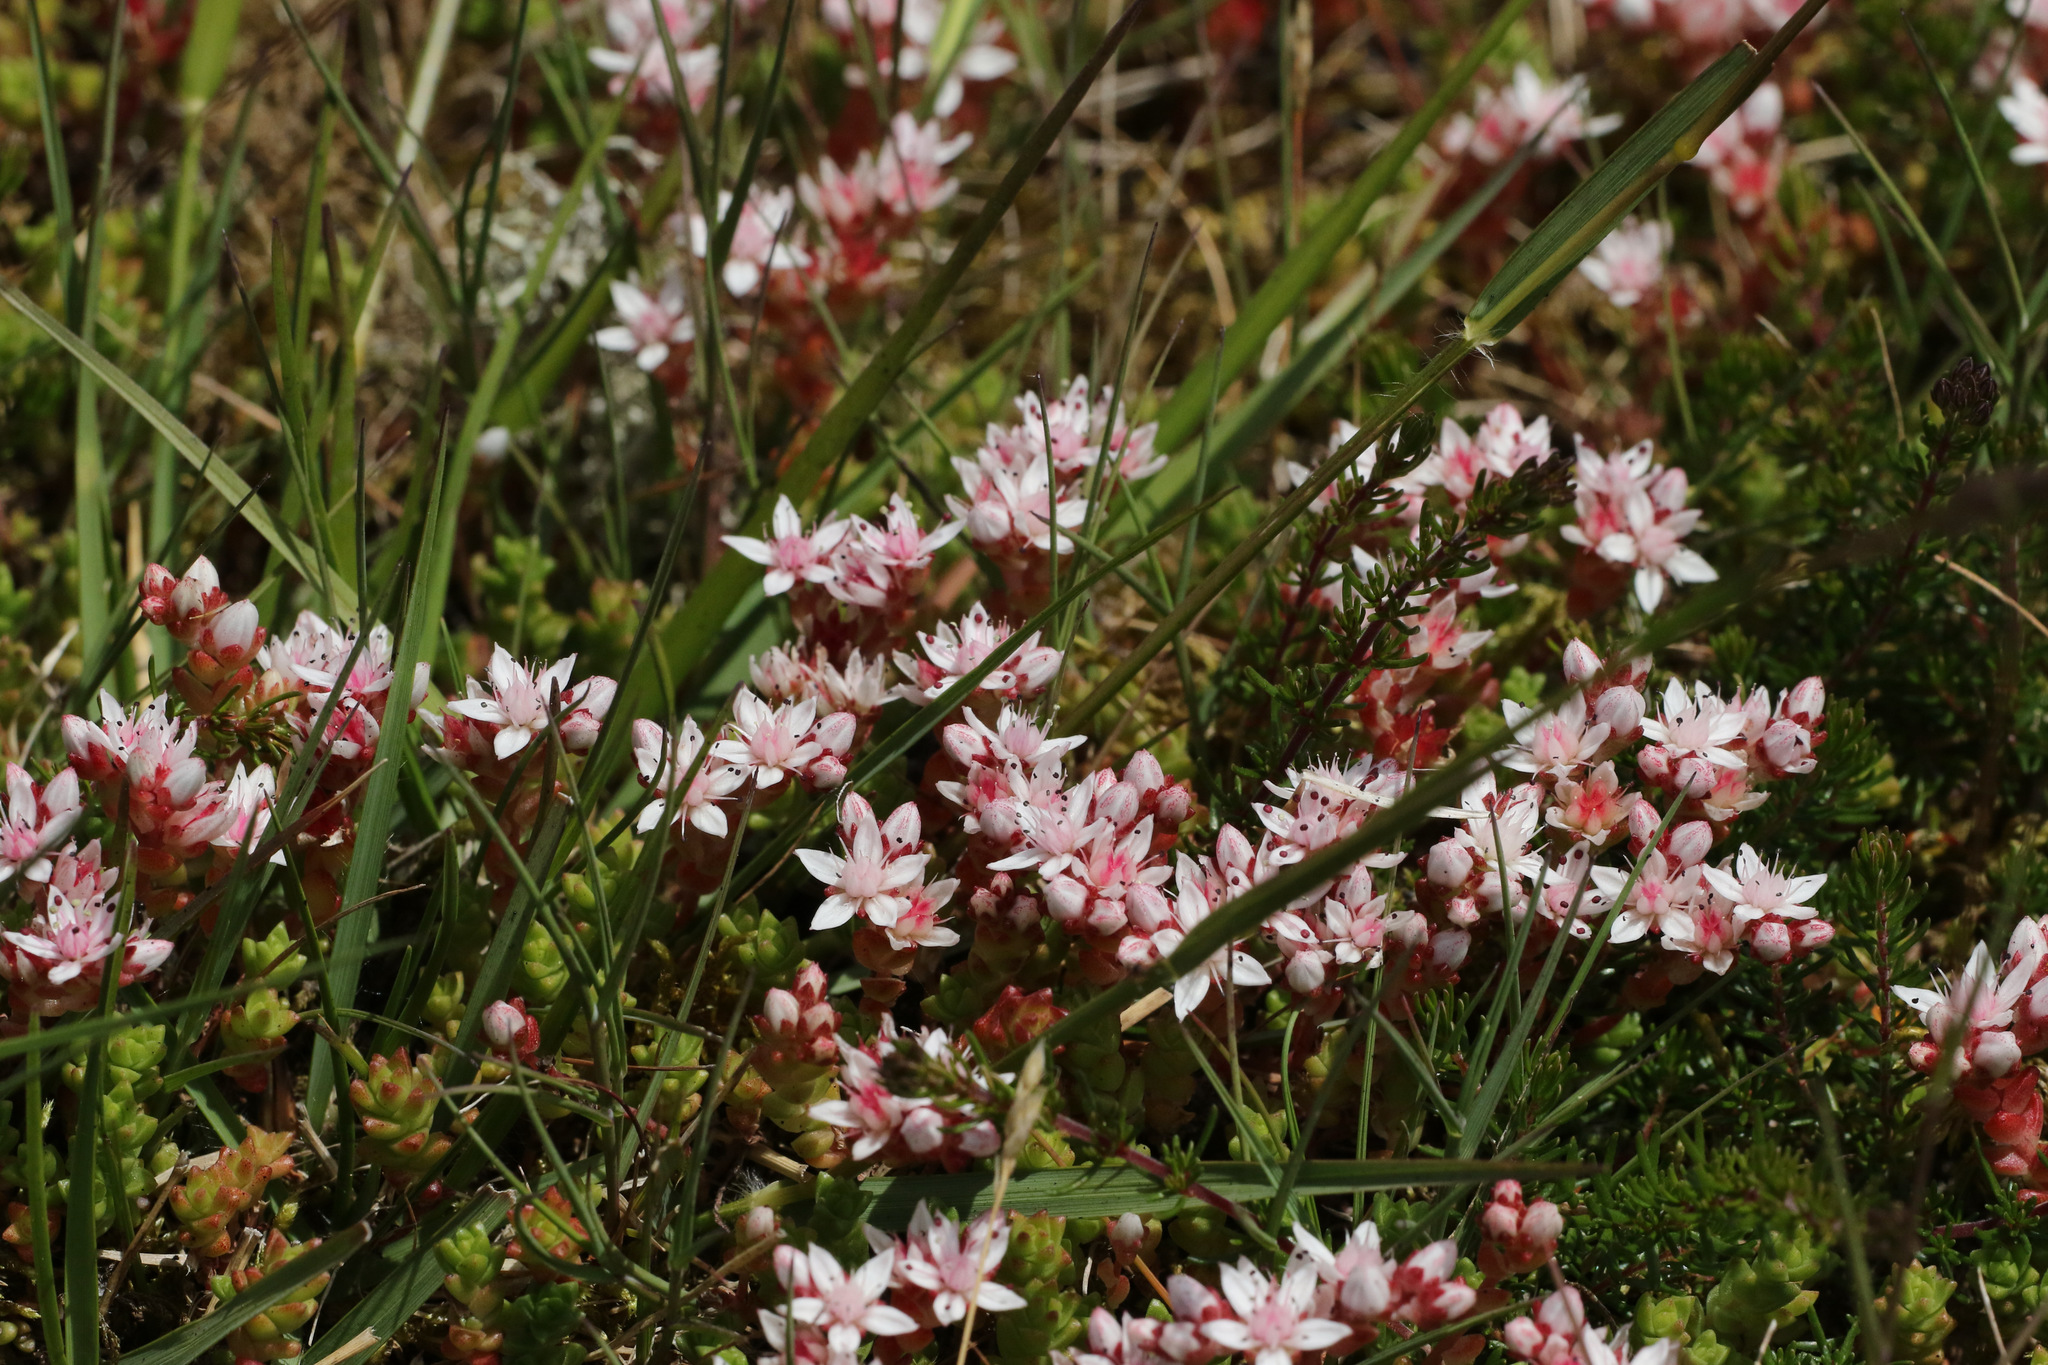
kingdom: Plantae
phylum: Tracheophyta
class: Magnoliopsida
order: Saxifragales
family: Crassulaceae
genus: Sedum
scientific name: Sedum anglicum
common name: English stonecrop
